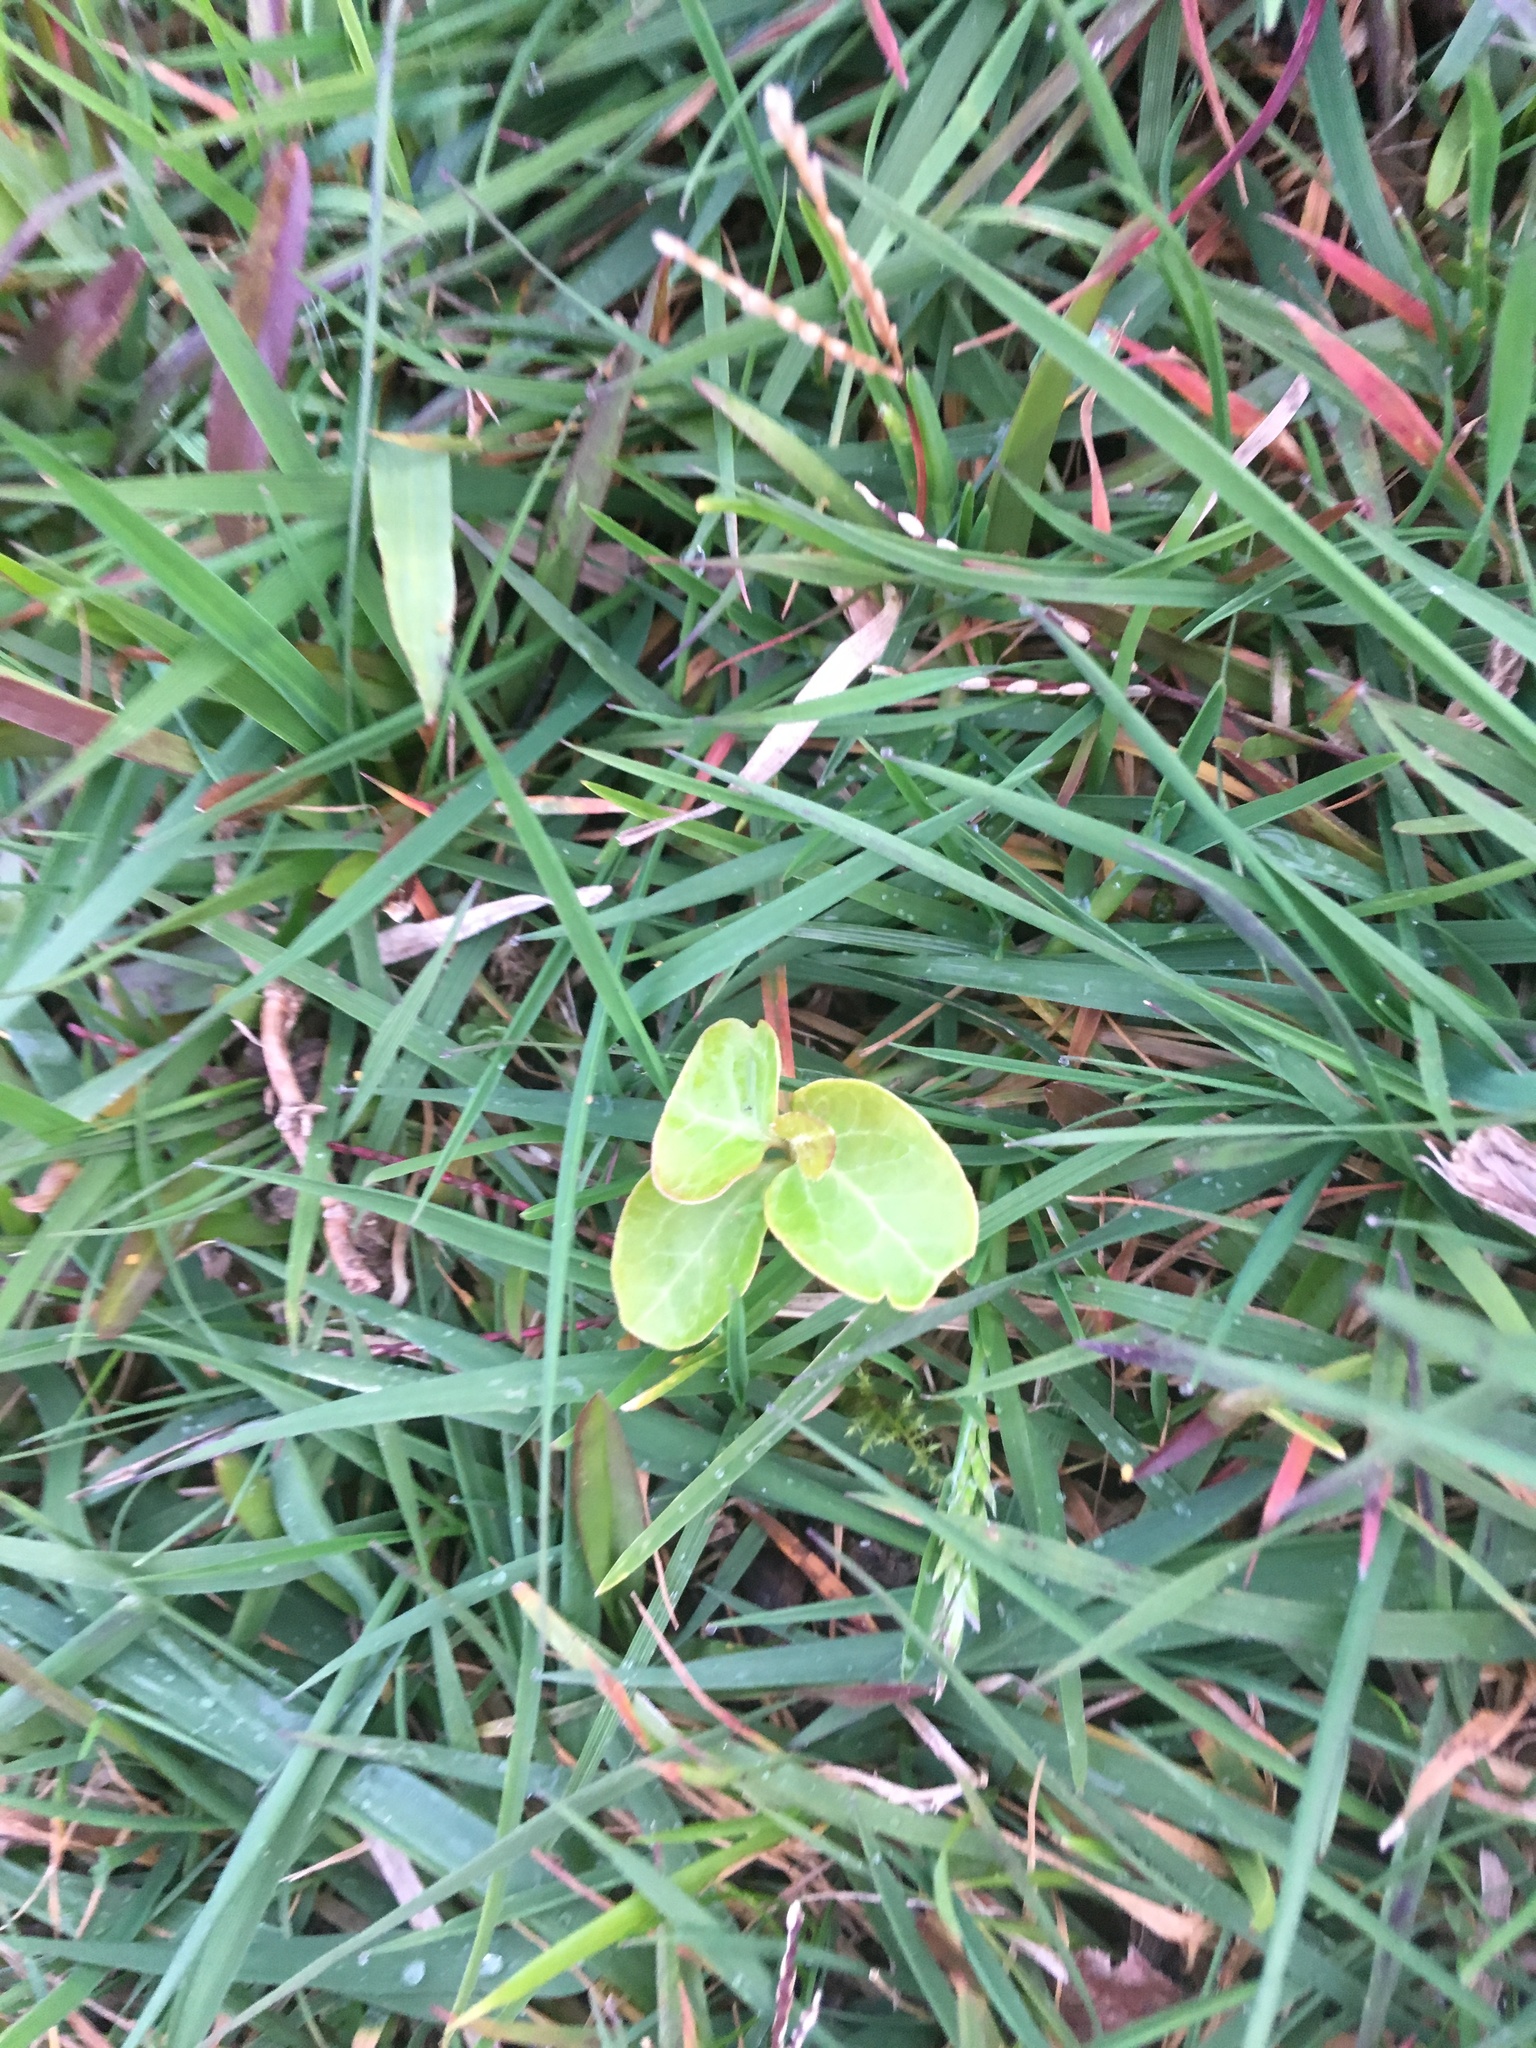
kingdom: Plantae
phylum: Tracheophyta
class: Magnoliopsida
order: Apiales
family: Araliaceae
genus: Hedera
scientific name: Hedera helix
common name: Ivy
